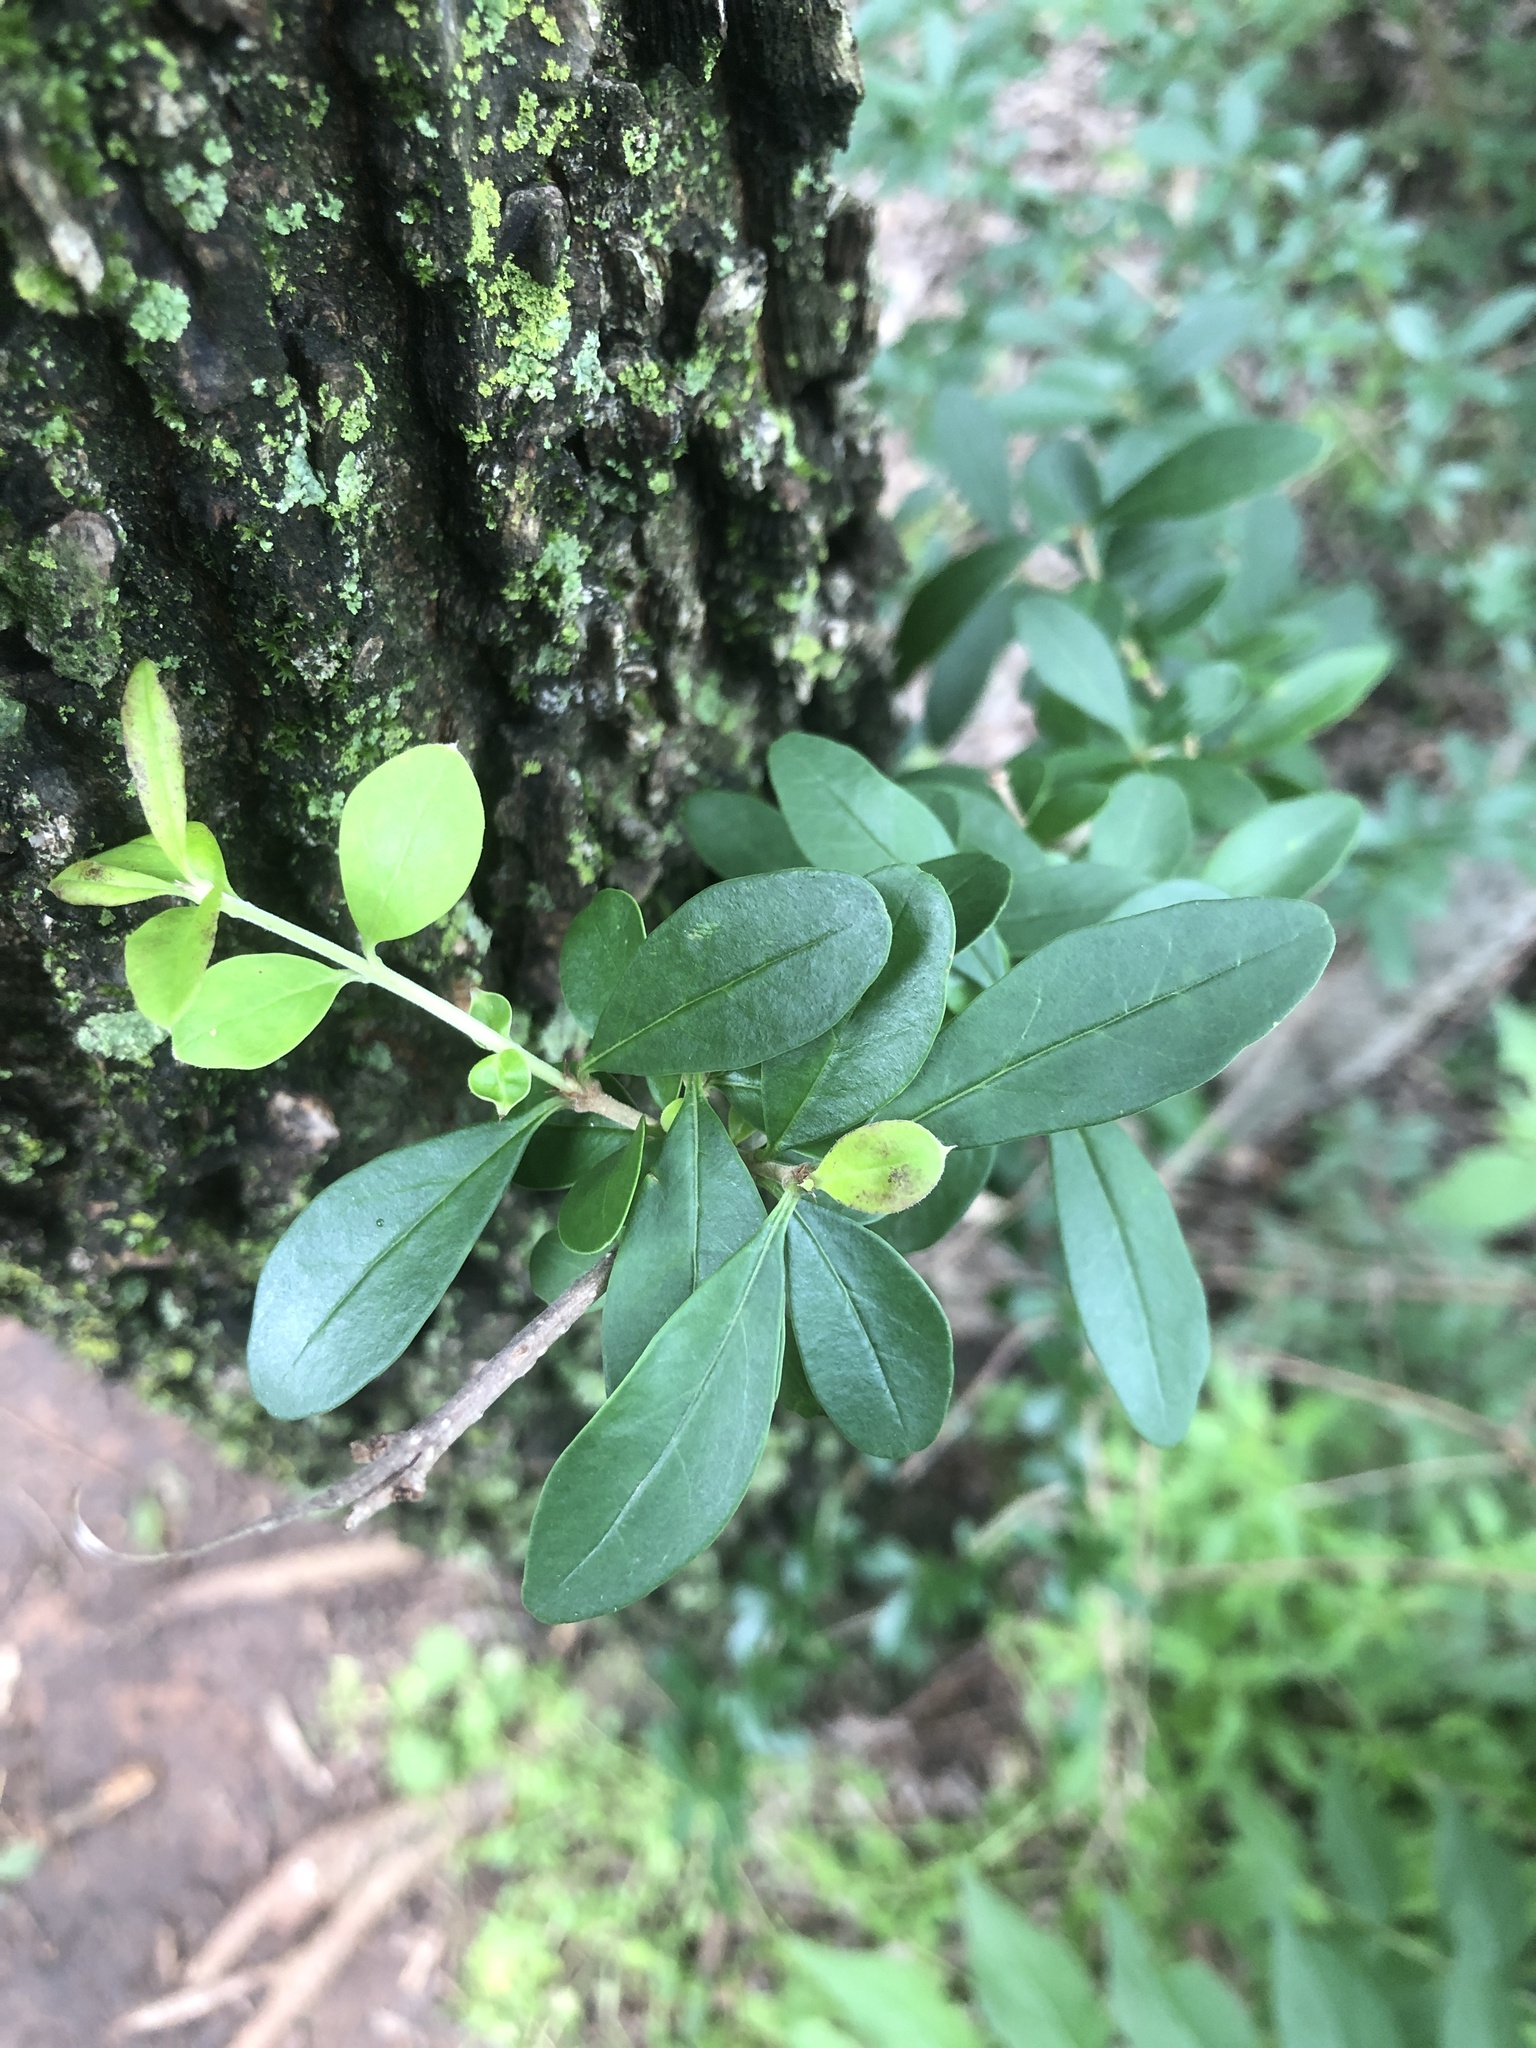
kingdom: Plantae
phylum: Tracheophyta
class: Magnoliopsida
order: Lamiales
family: Oleaceae
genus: Ligustrum
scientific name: Ligustrum quihoui
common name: Waxyleaf privet
